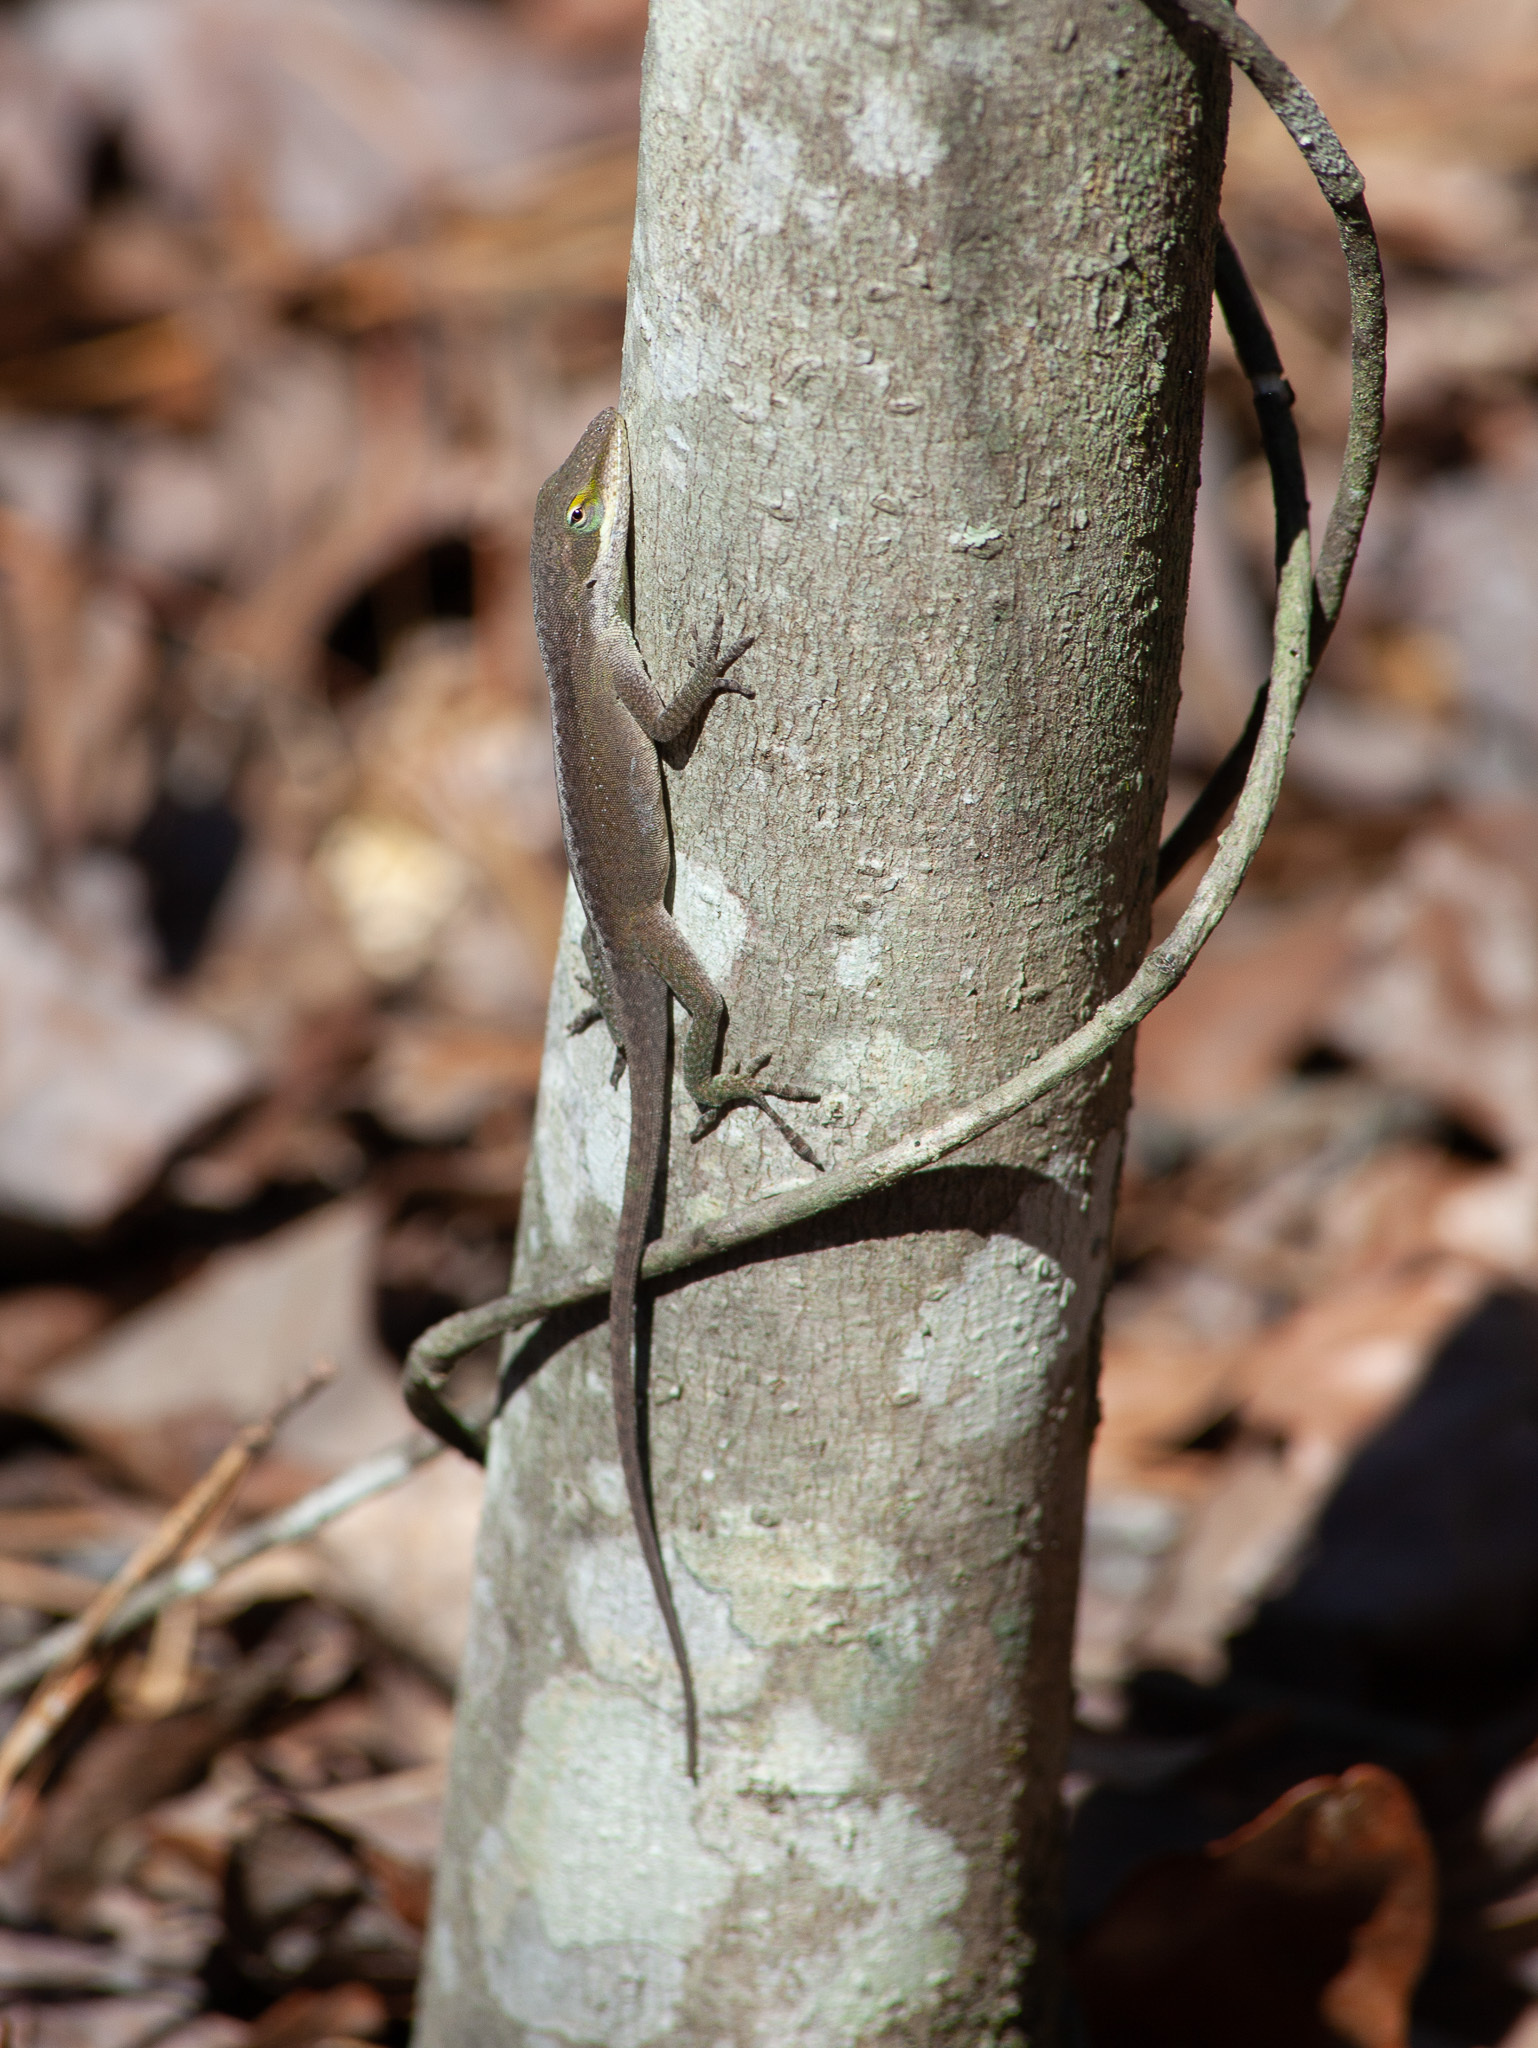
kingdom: Animalia
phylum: Chordata
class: Squamata
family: Dactyloidae
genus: Anolis
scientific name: Anolis carolinensis
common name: Green anole
